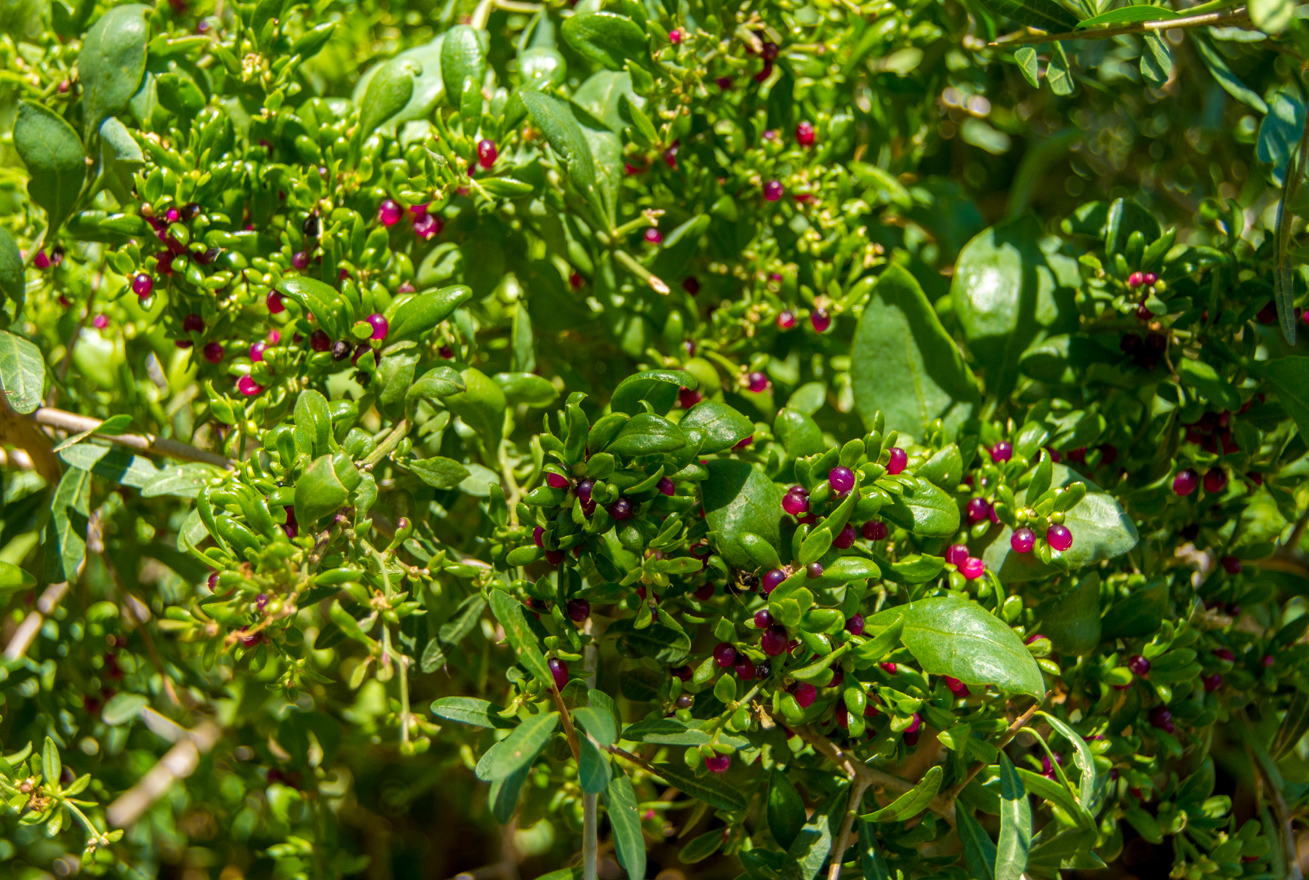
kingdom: Plantae
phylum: Tracheophyta
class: Magnoliopsida
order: Caryophyllales
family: Amaranthaceae
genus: Holmbergia
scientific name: Holmbergia tweedii
